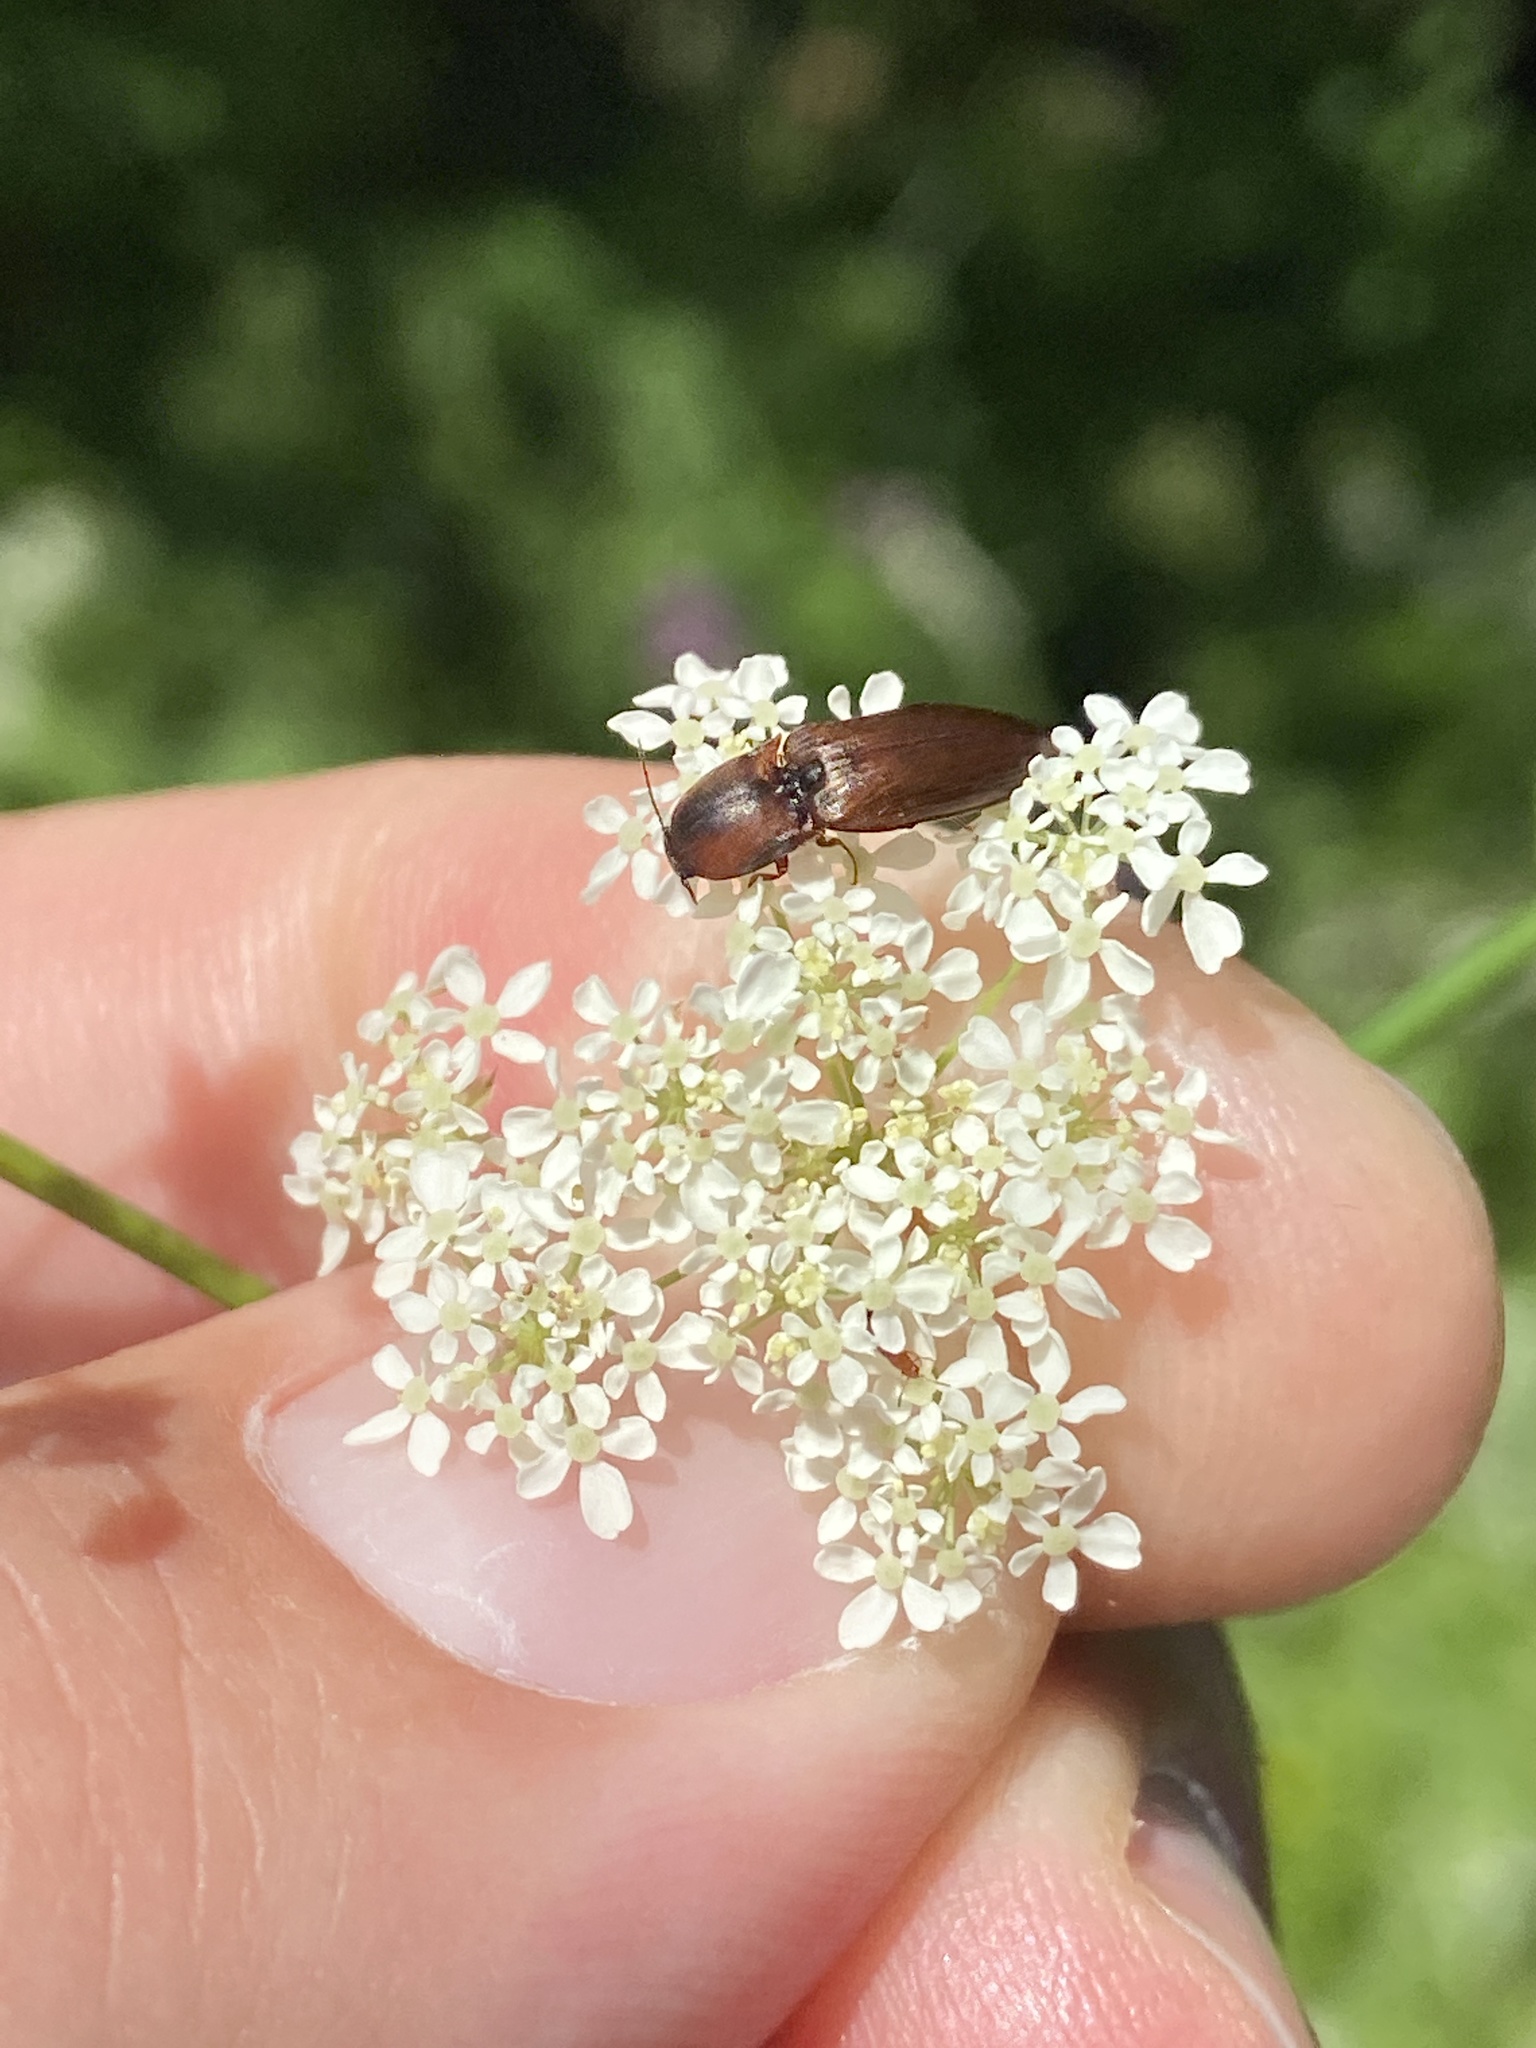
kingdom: Animalia
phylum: Arthropoda
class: Insecta
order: Coleoptera
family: Elateridae
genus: Sericus
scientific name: Sericus brunneus
